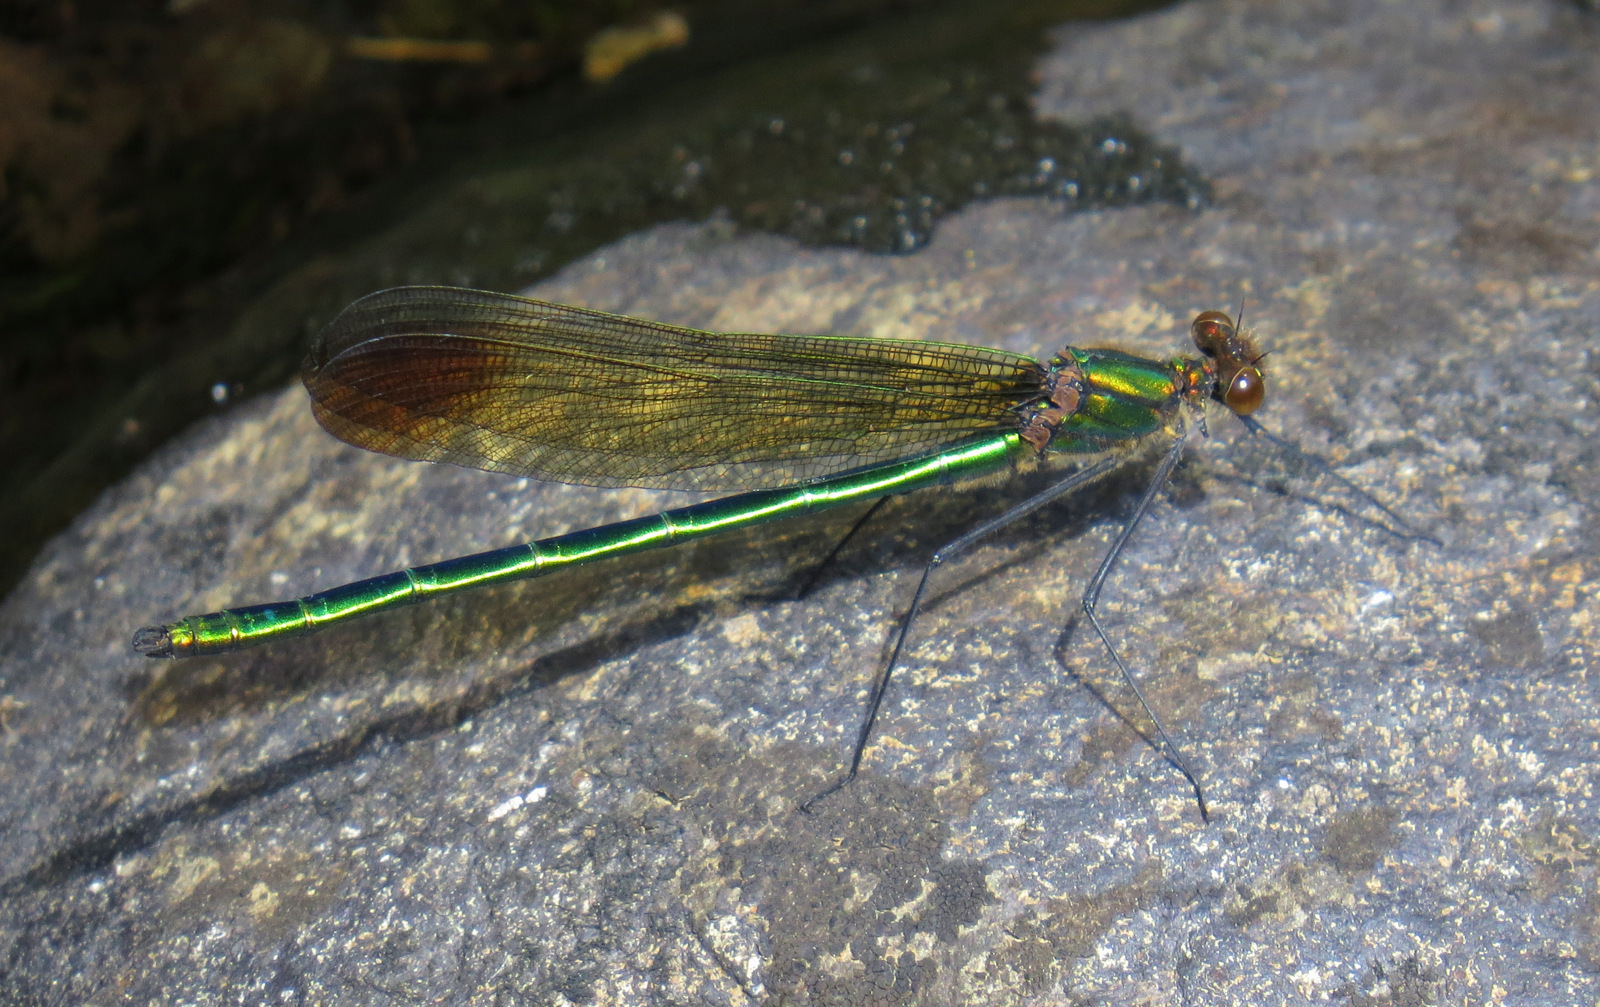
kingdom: Animalia
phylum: Arthropoda
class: Insecta
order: Odonata
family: Calopterygidae
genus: Calopteryx
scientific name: Calopteryx amata
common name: Superb jewelwing
